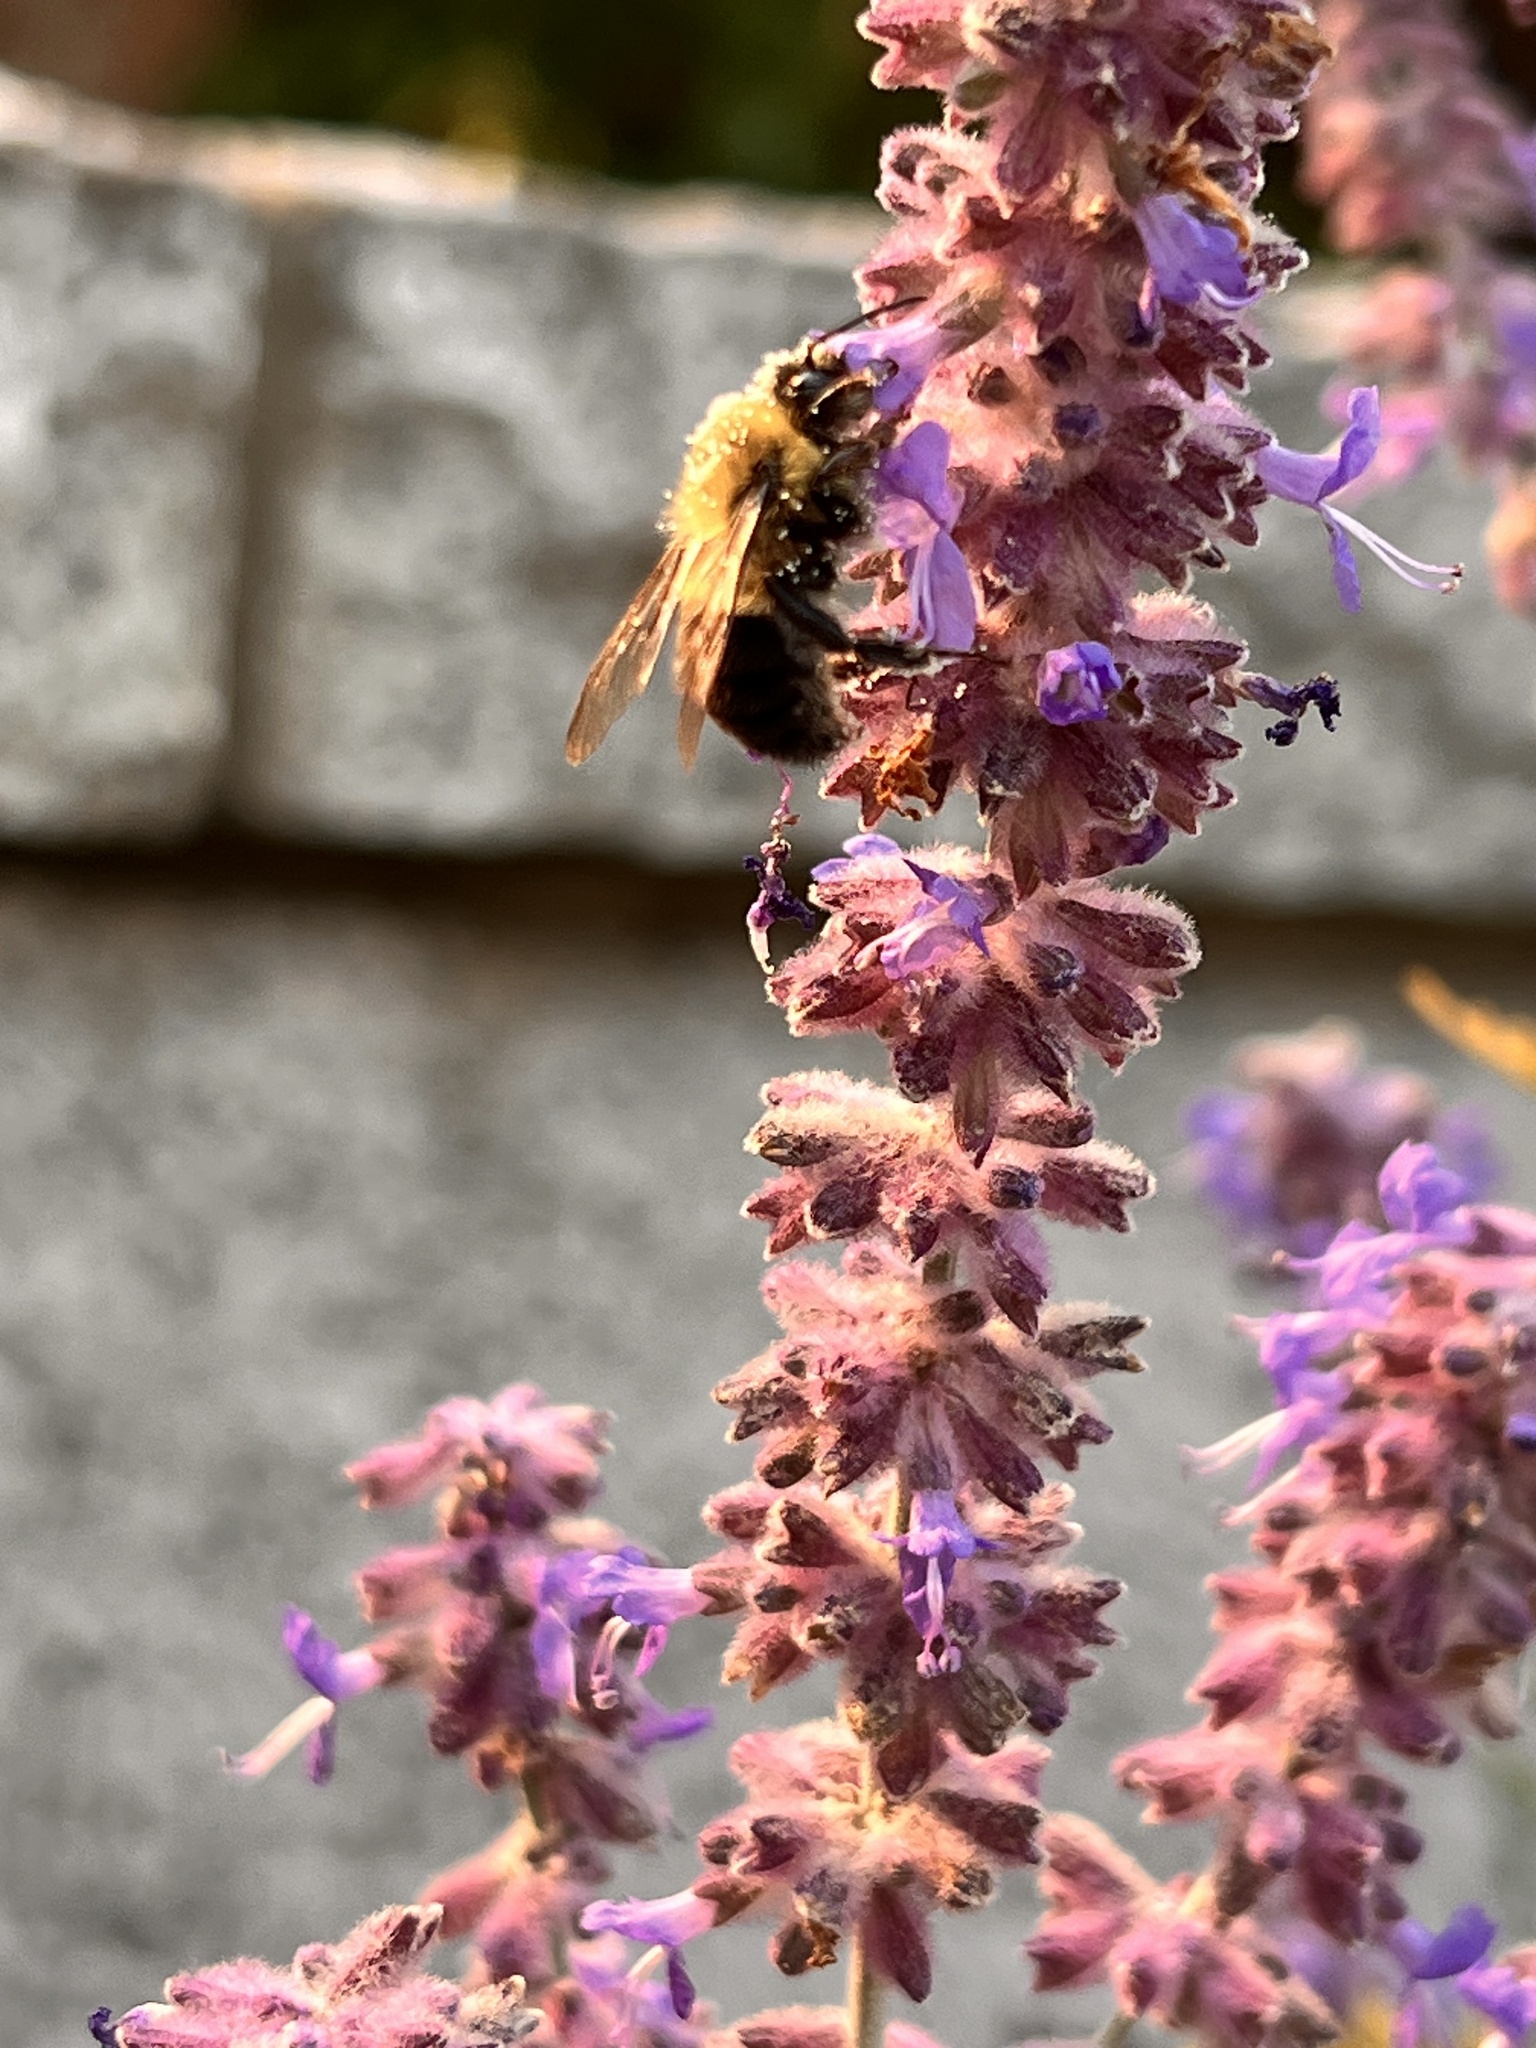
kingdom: Animalia
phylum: Arthropoda
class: Insecta
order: Hymenoptera
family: Apidae
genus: Bombus
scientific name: Bombus impatiens
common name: Common eastern bumble bee
